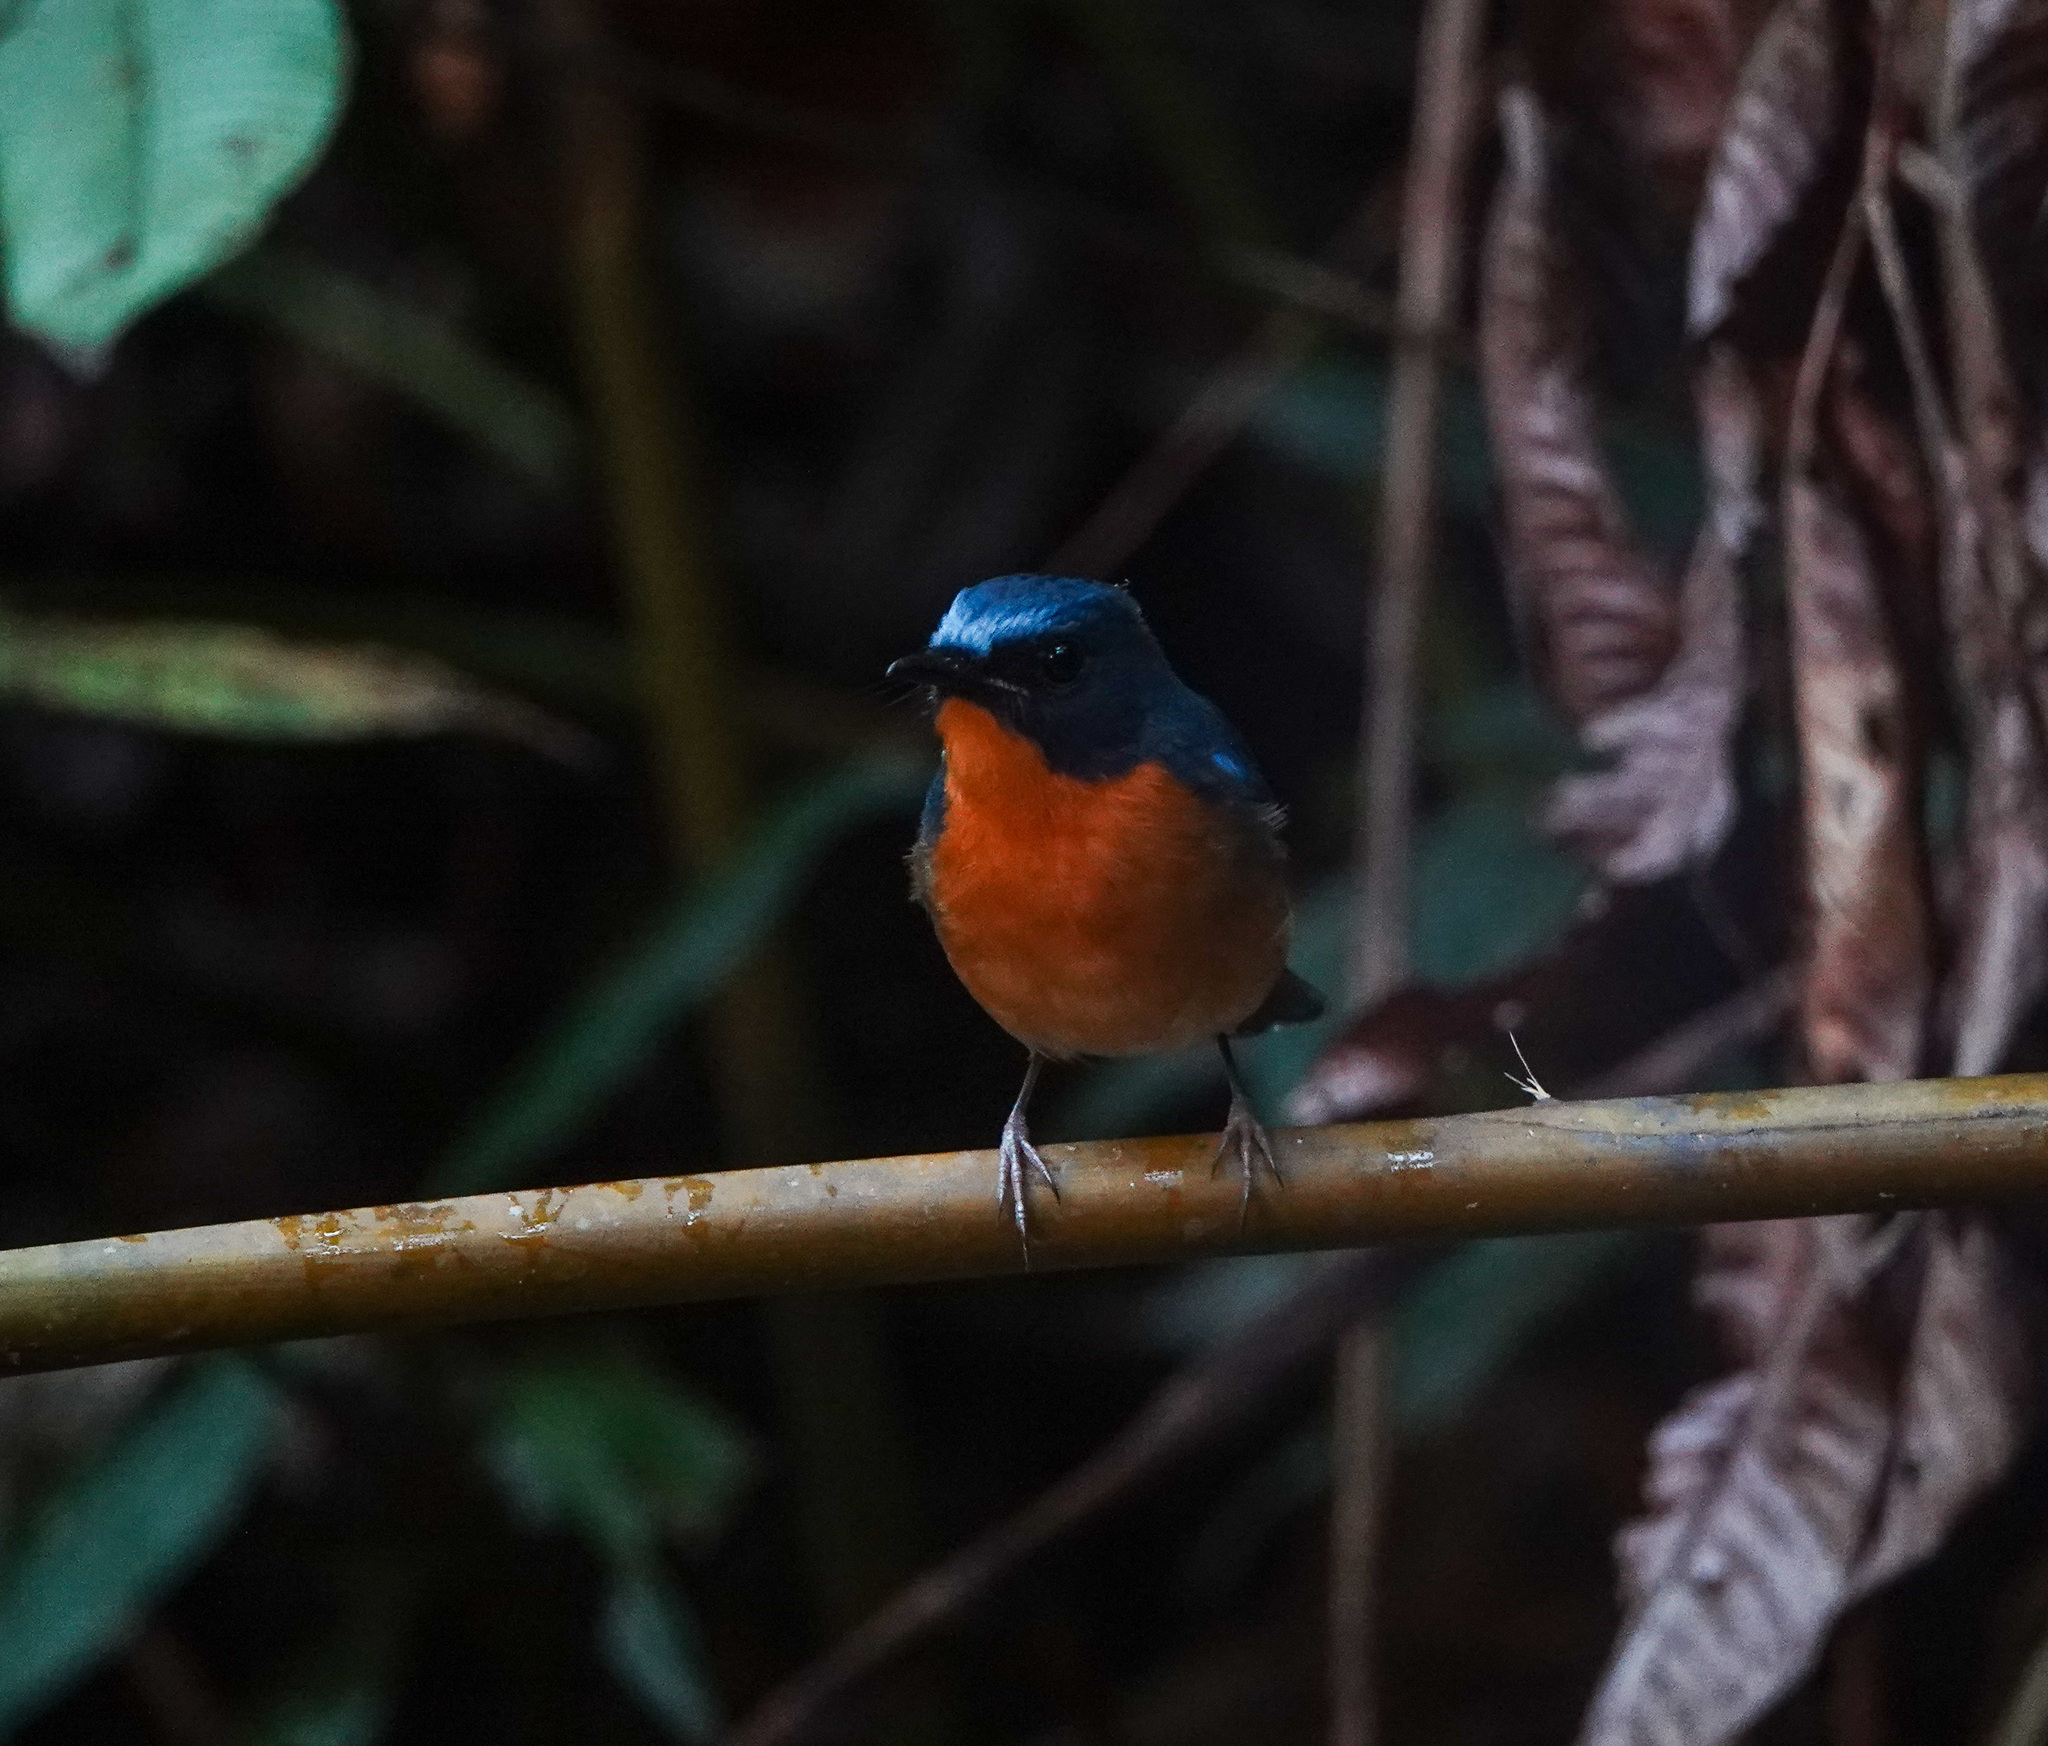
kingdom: Animalia
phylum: Chordata
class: Aves
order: Passeriformes
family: Muscicapidae
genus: Cyornis
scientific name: Cyornis whitei
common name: Hill blue flycatcher
